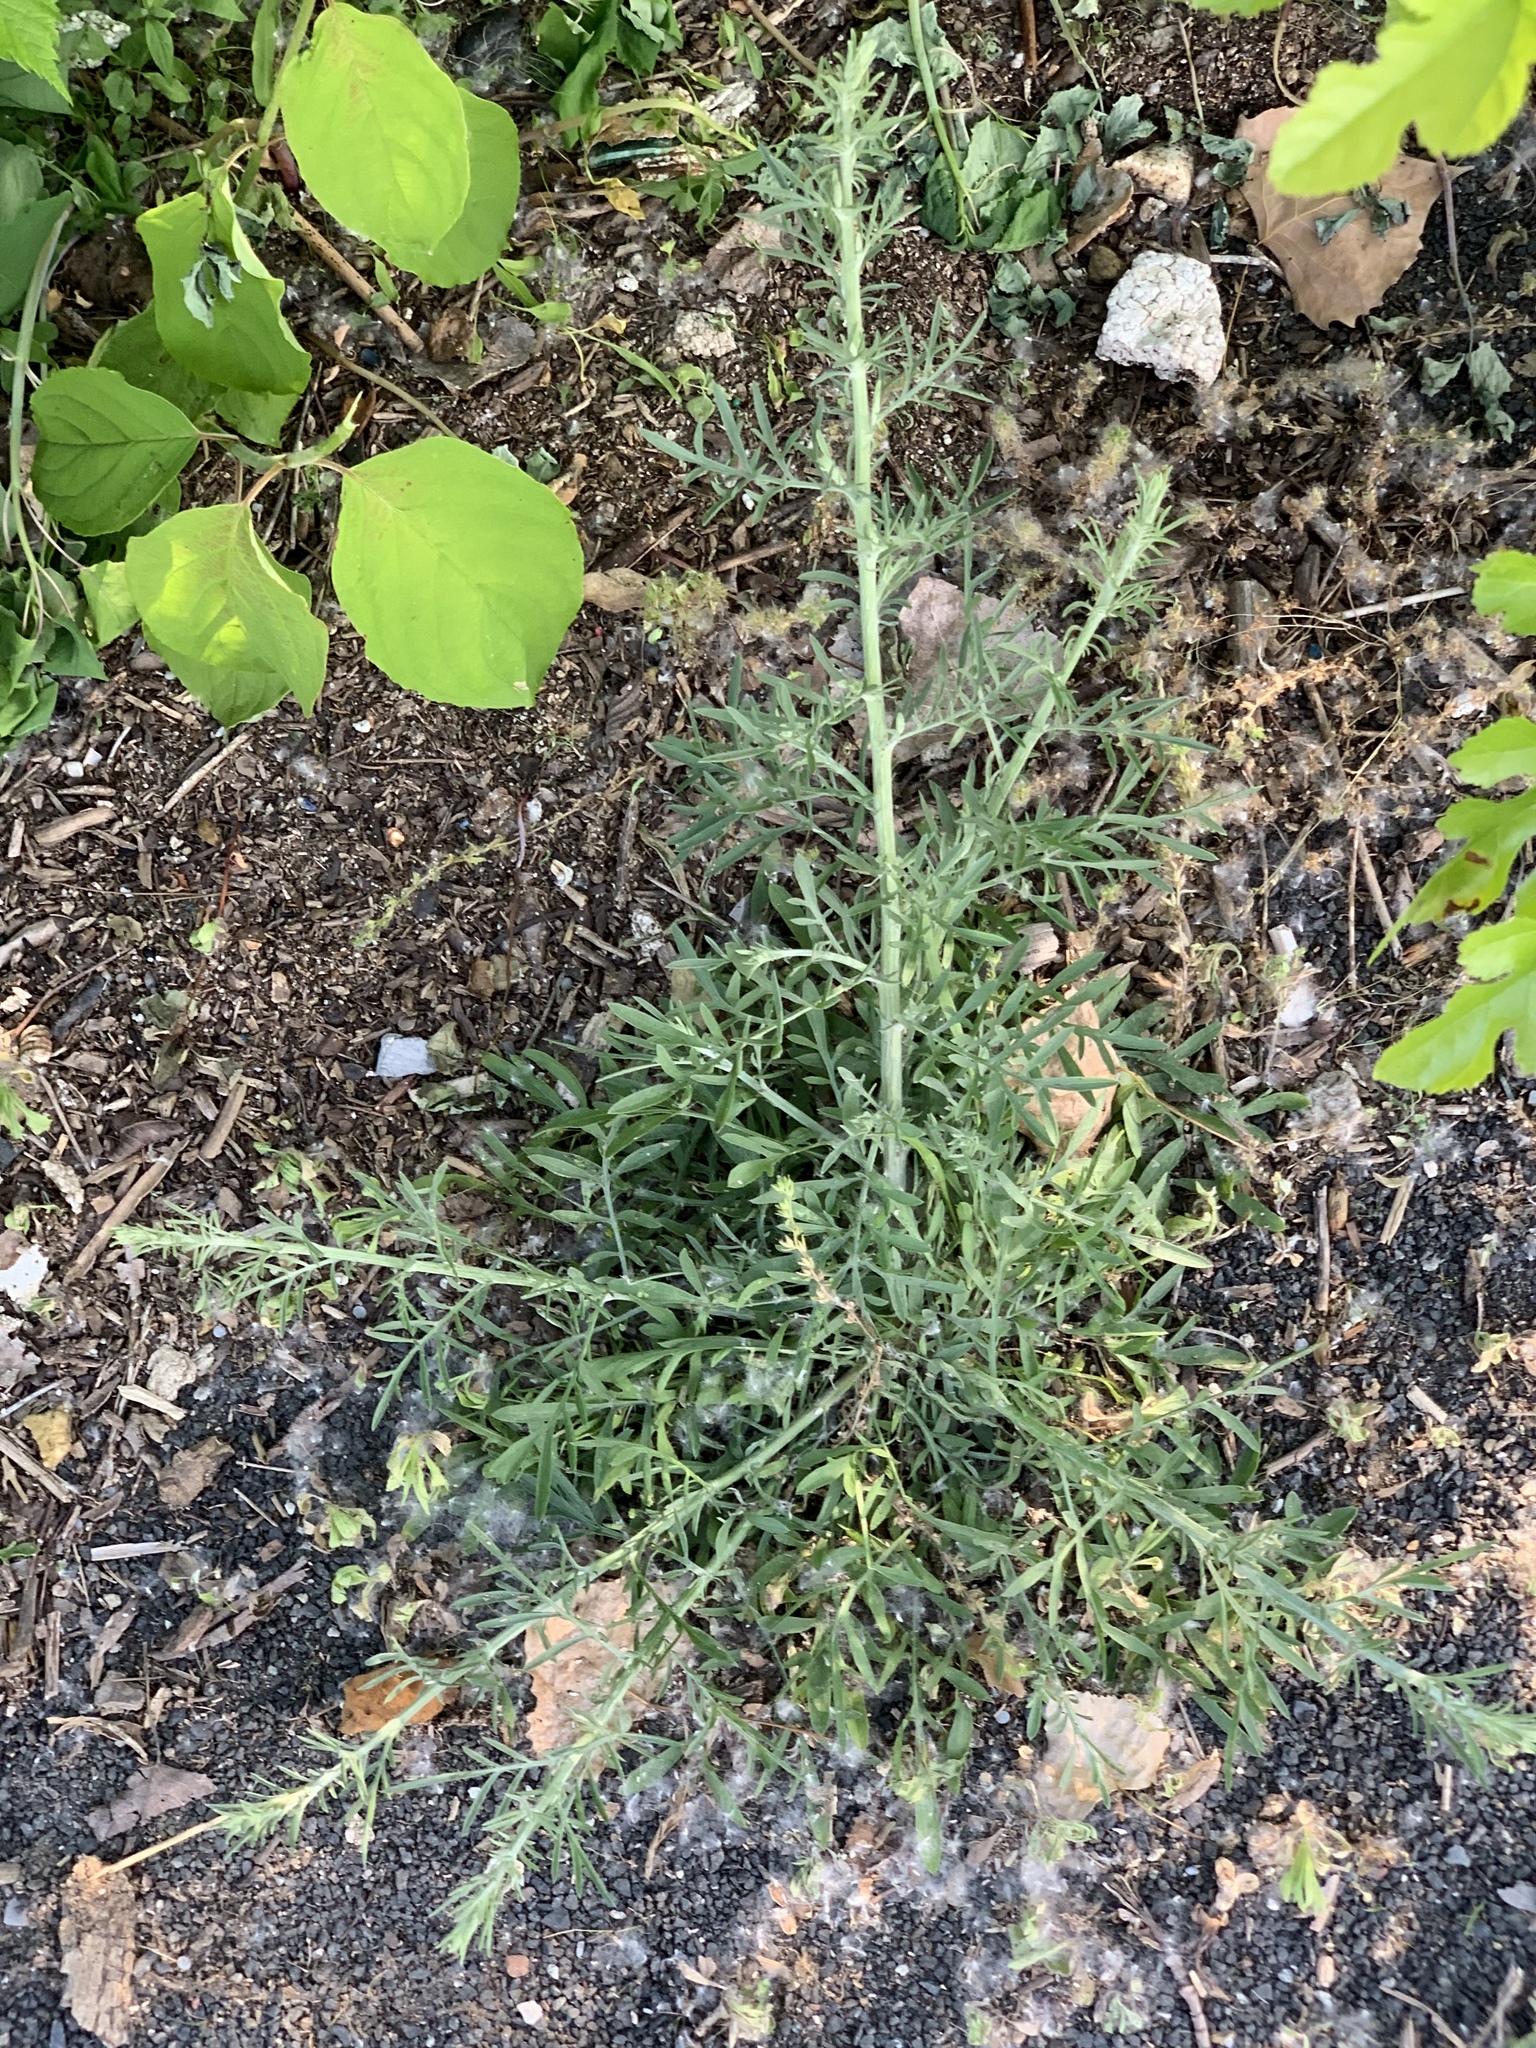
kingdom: Plantae
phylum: Tracheophyta
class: Magnoliopsida
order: Asterales
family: Asteraceae
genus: Centaurea
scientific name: Centaurea stoebe
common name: Spotted knapweed
